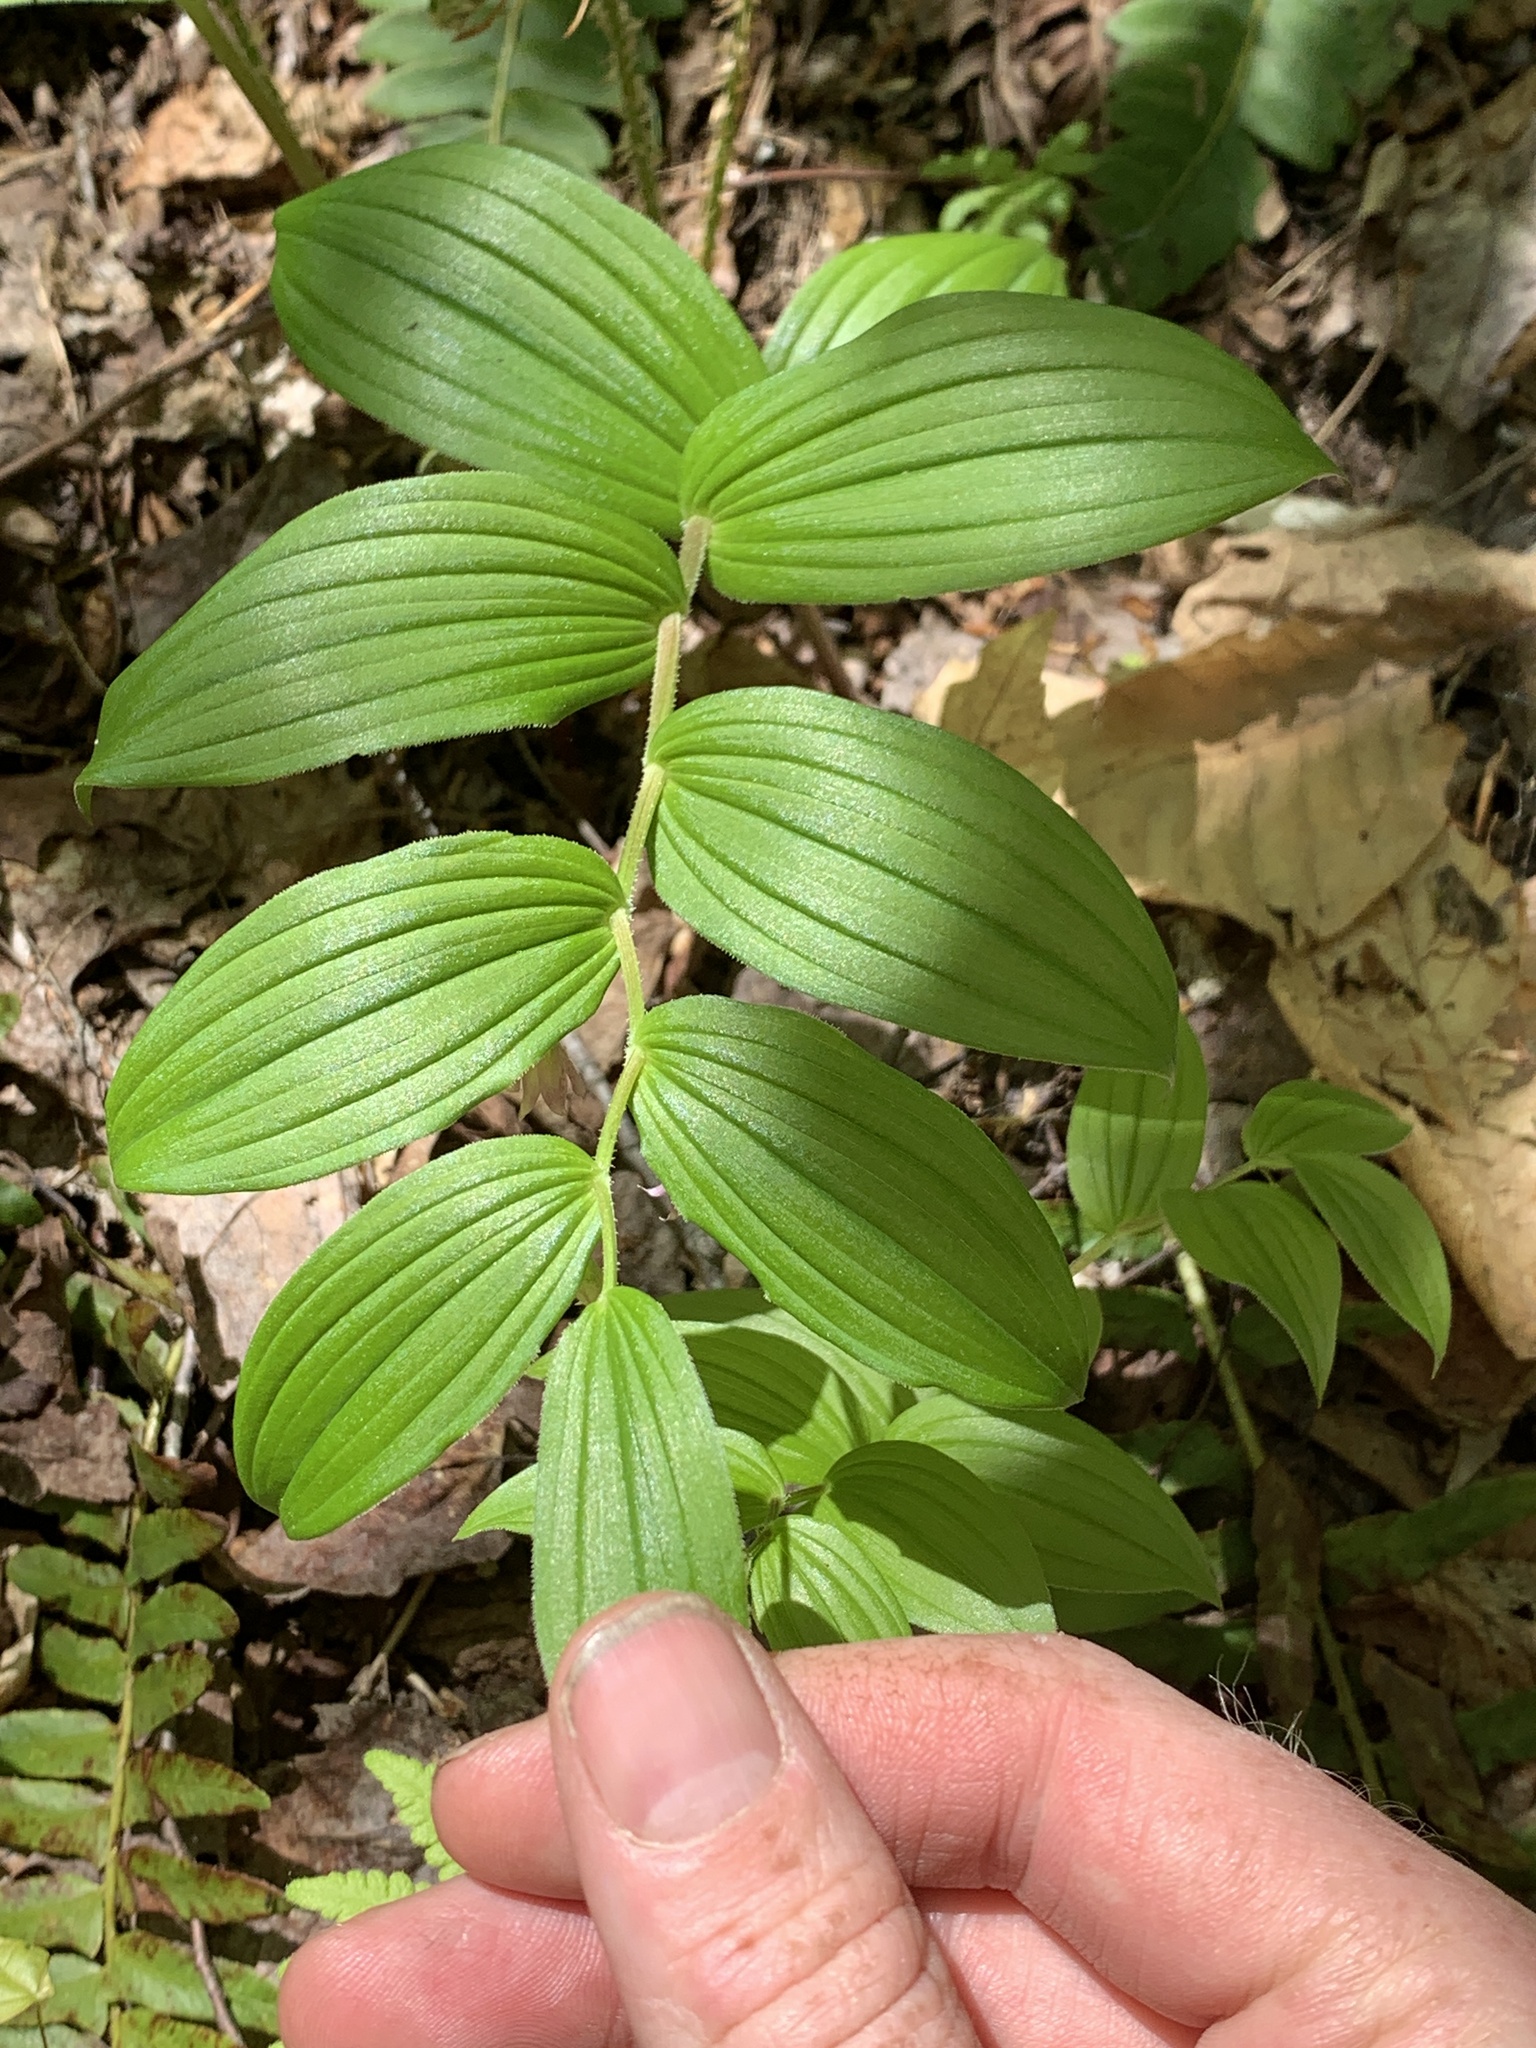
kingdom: Plantae
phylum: Tracheophyta
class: Liliopsida
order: Liliales
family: Liliaceae
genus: Streptopus
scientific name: Streptopus lanceolatus
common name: Rose mandarin
